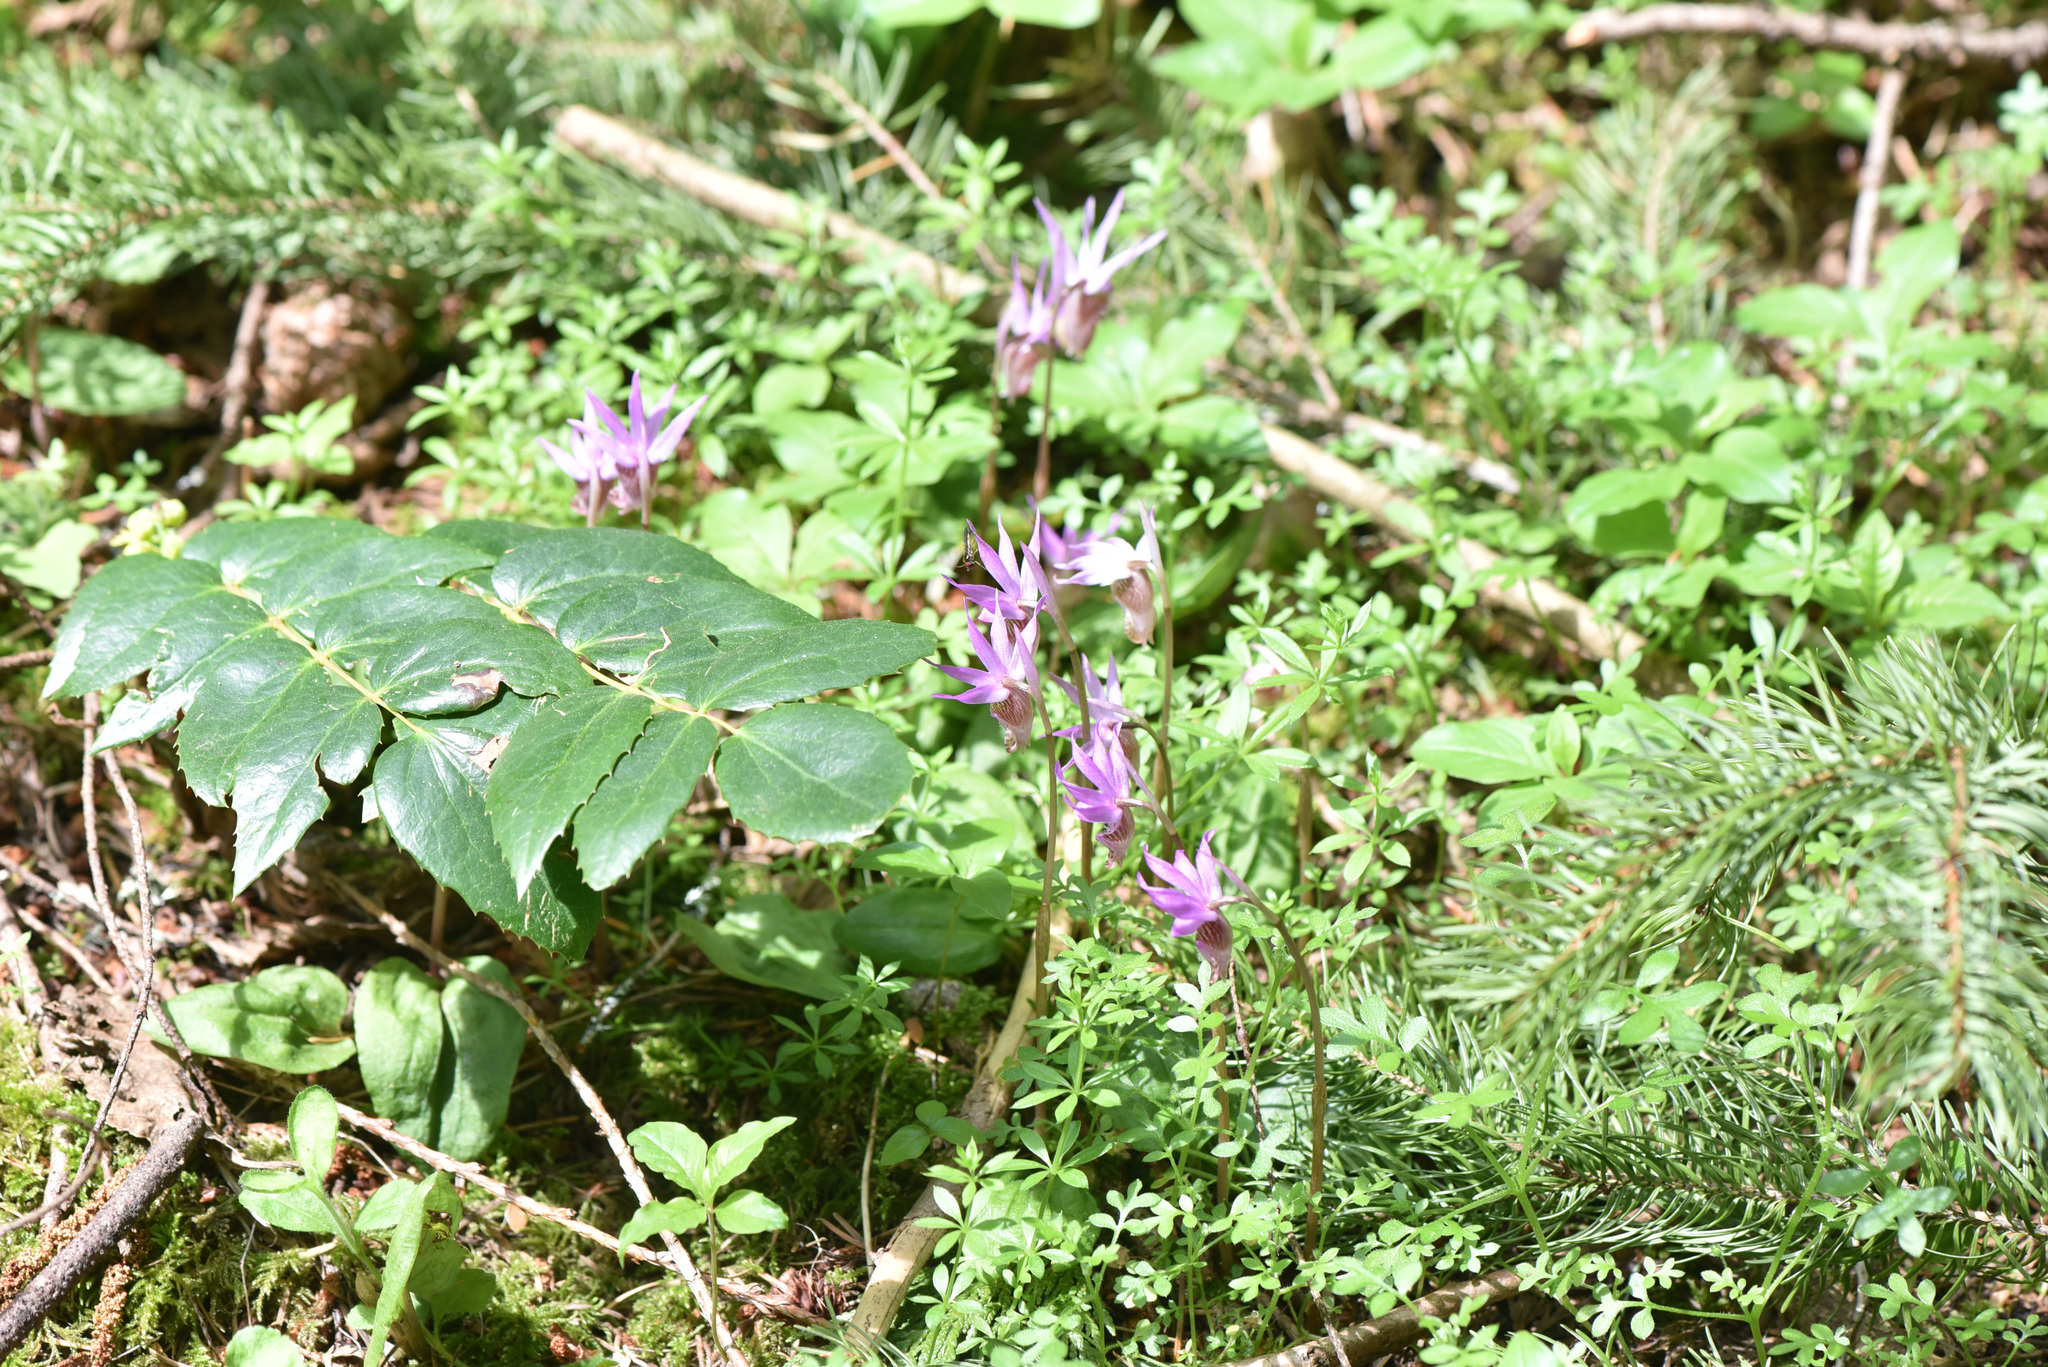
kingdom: Plantae
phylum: Tracheophyta
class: Liliopsida
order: Asparagales
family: Orchidaceae
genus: Calypso
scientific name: Calypso bulbosa
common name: Calypso
